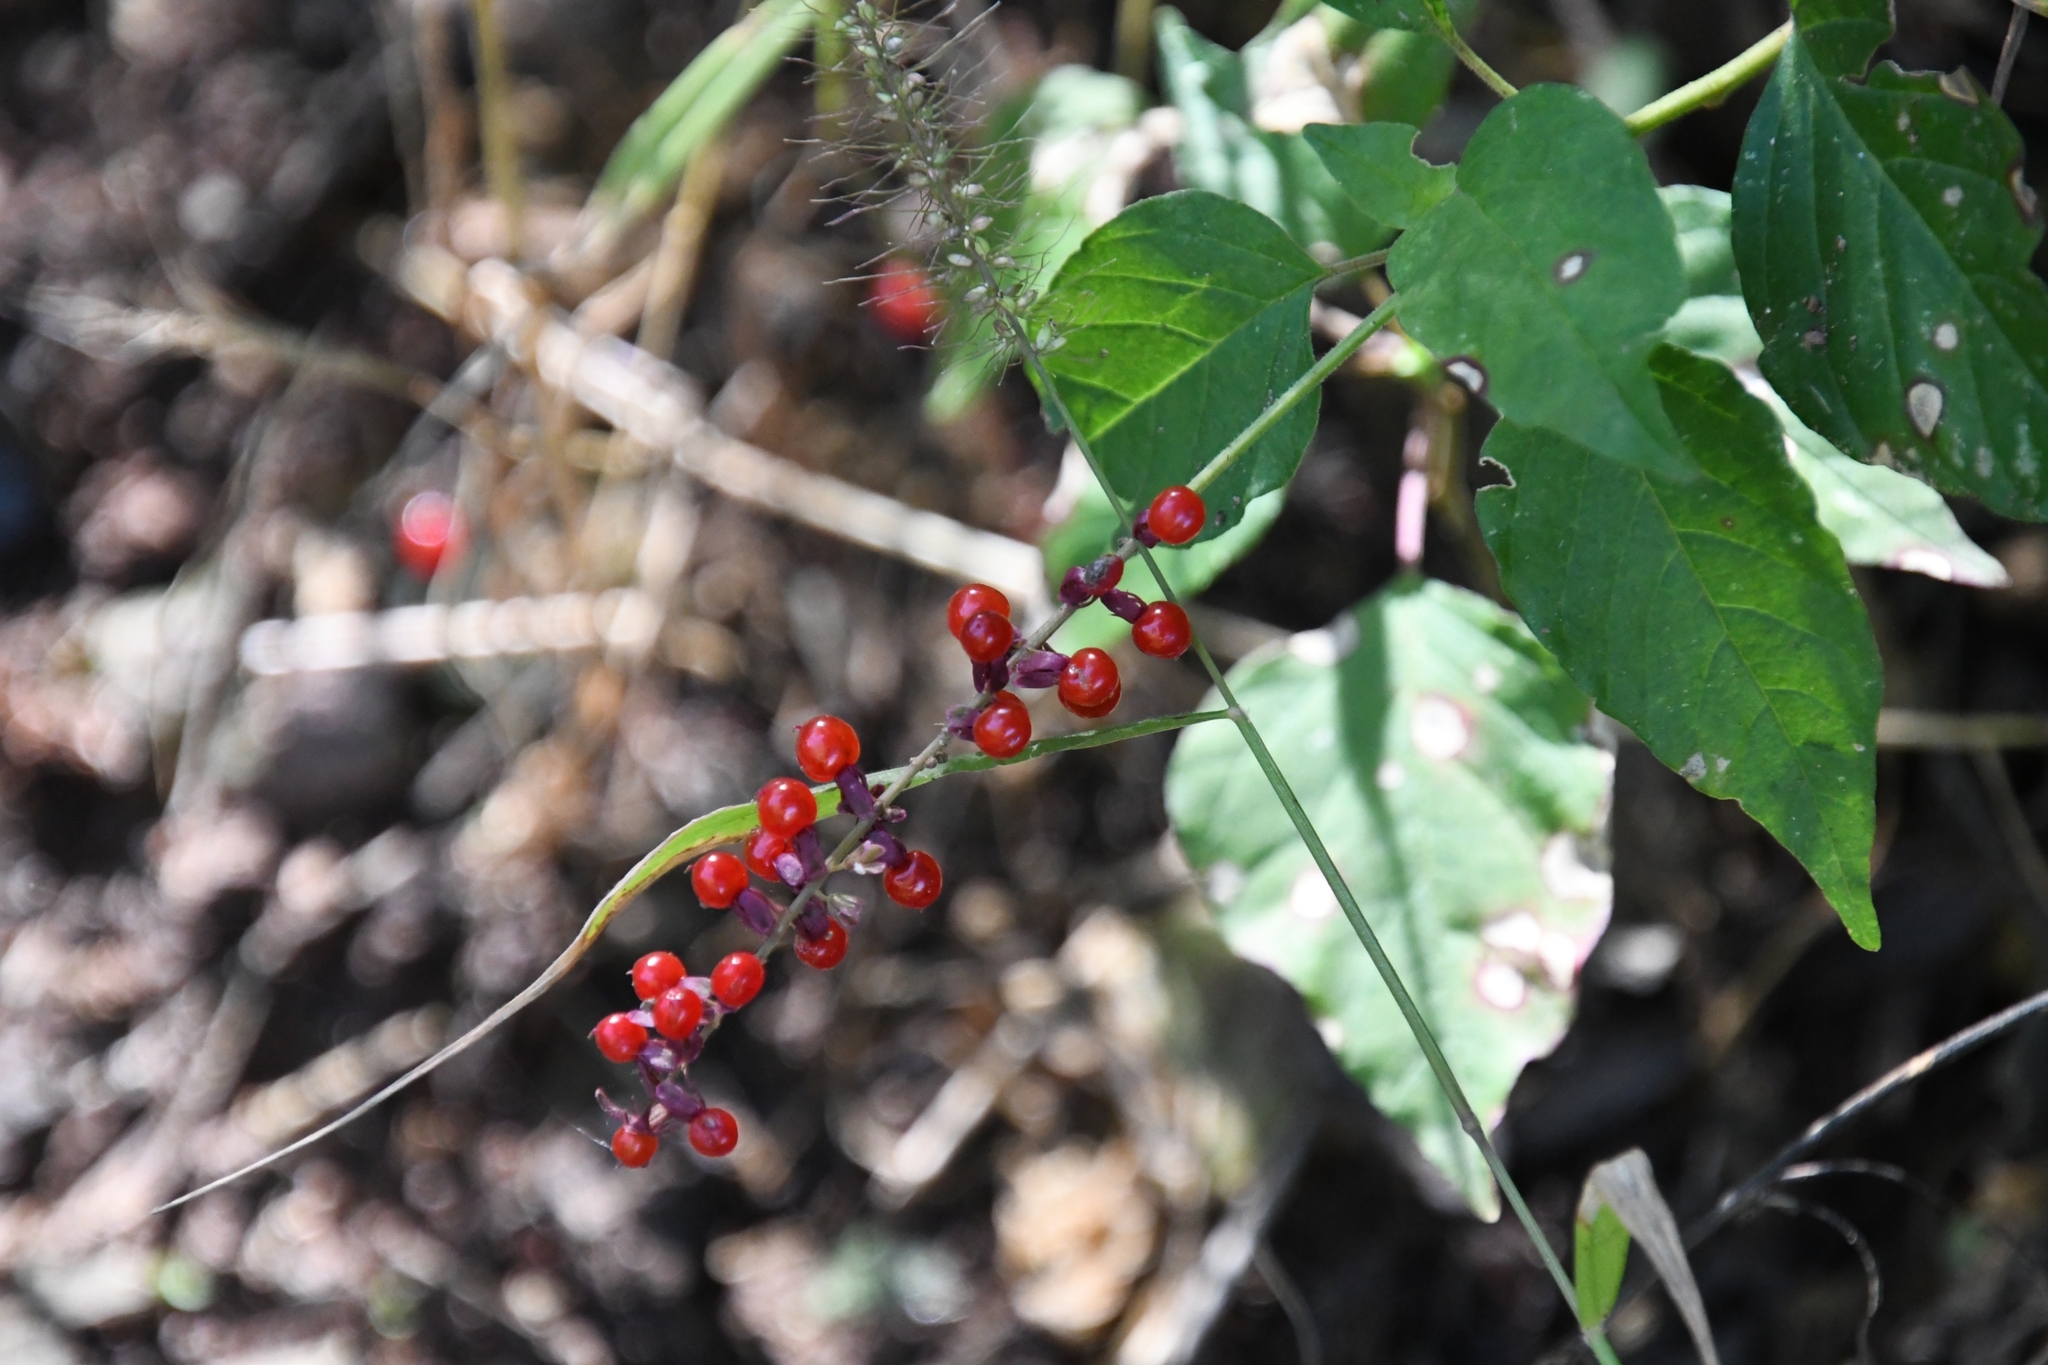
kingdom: Plantae
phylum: Tracheophyta
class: Magnoliopsida
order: Caryophyllales
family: Phytolaccaceae
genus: Rivina
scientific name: Rivina humilis
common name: Rougeplant
